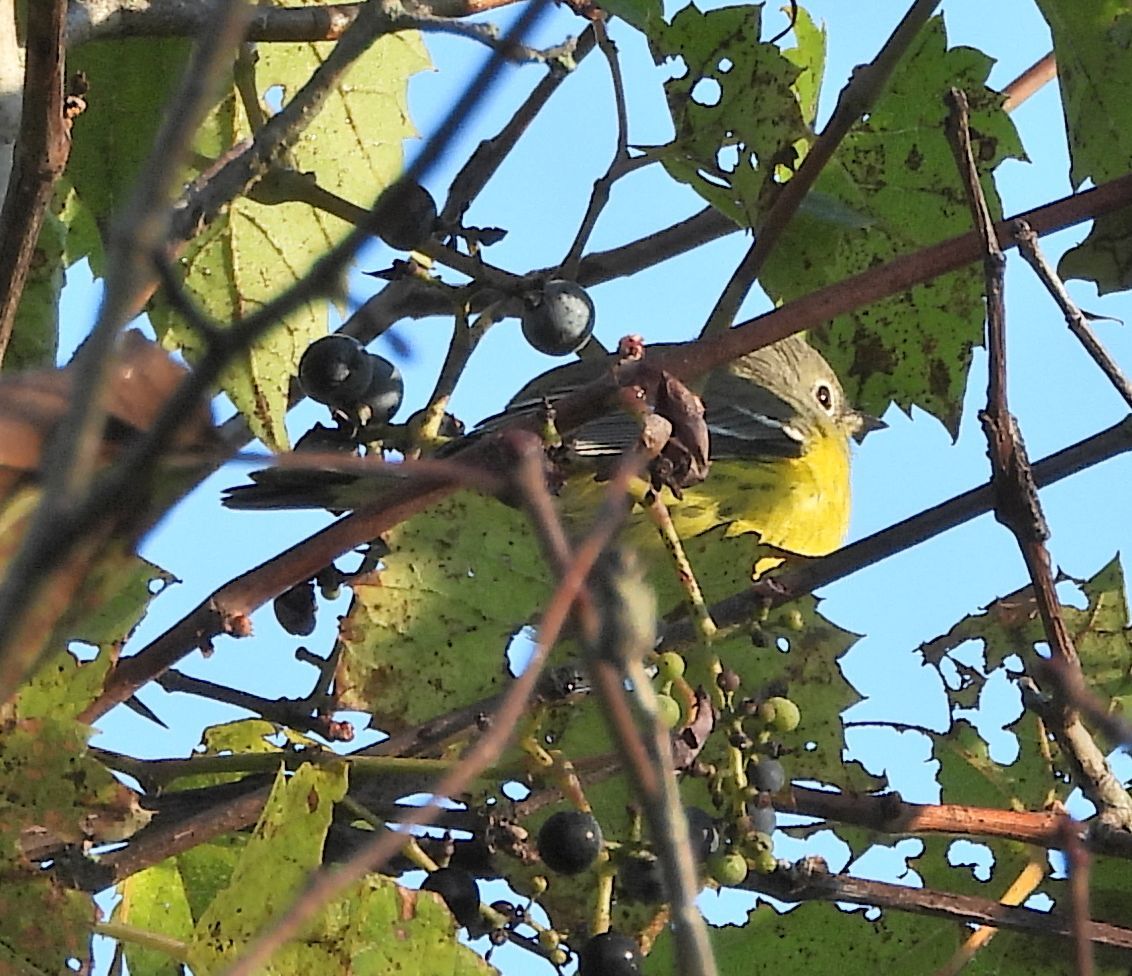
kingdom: Animalia
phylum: Chordata
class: Aves
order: Passeriformes
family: Parulidae
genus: Setophaga
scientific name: Setophaga magnolia
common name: Magnolia warbler
